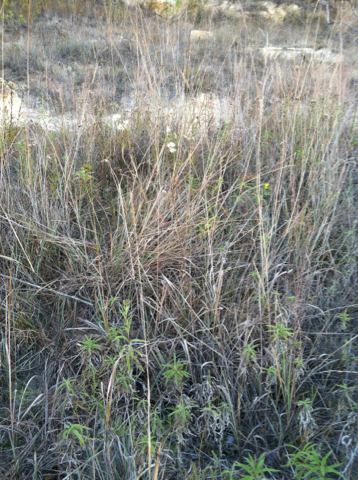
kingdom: Plantae
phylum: Tracheophyta
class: Magnoliopsida
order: Myrtales
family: Onagraceae
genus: Oenothera
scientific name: Oenothera glaucifolia
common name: False gaura
